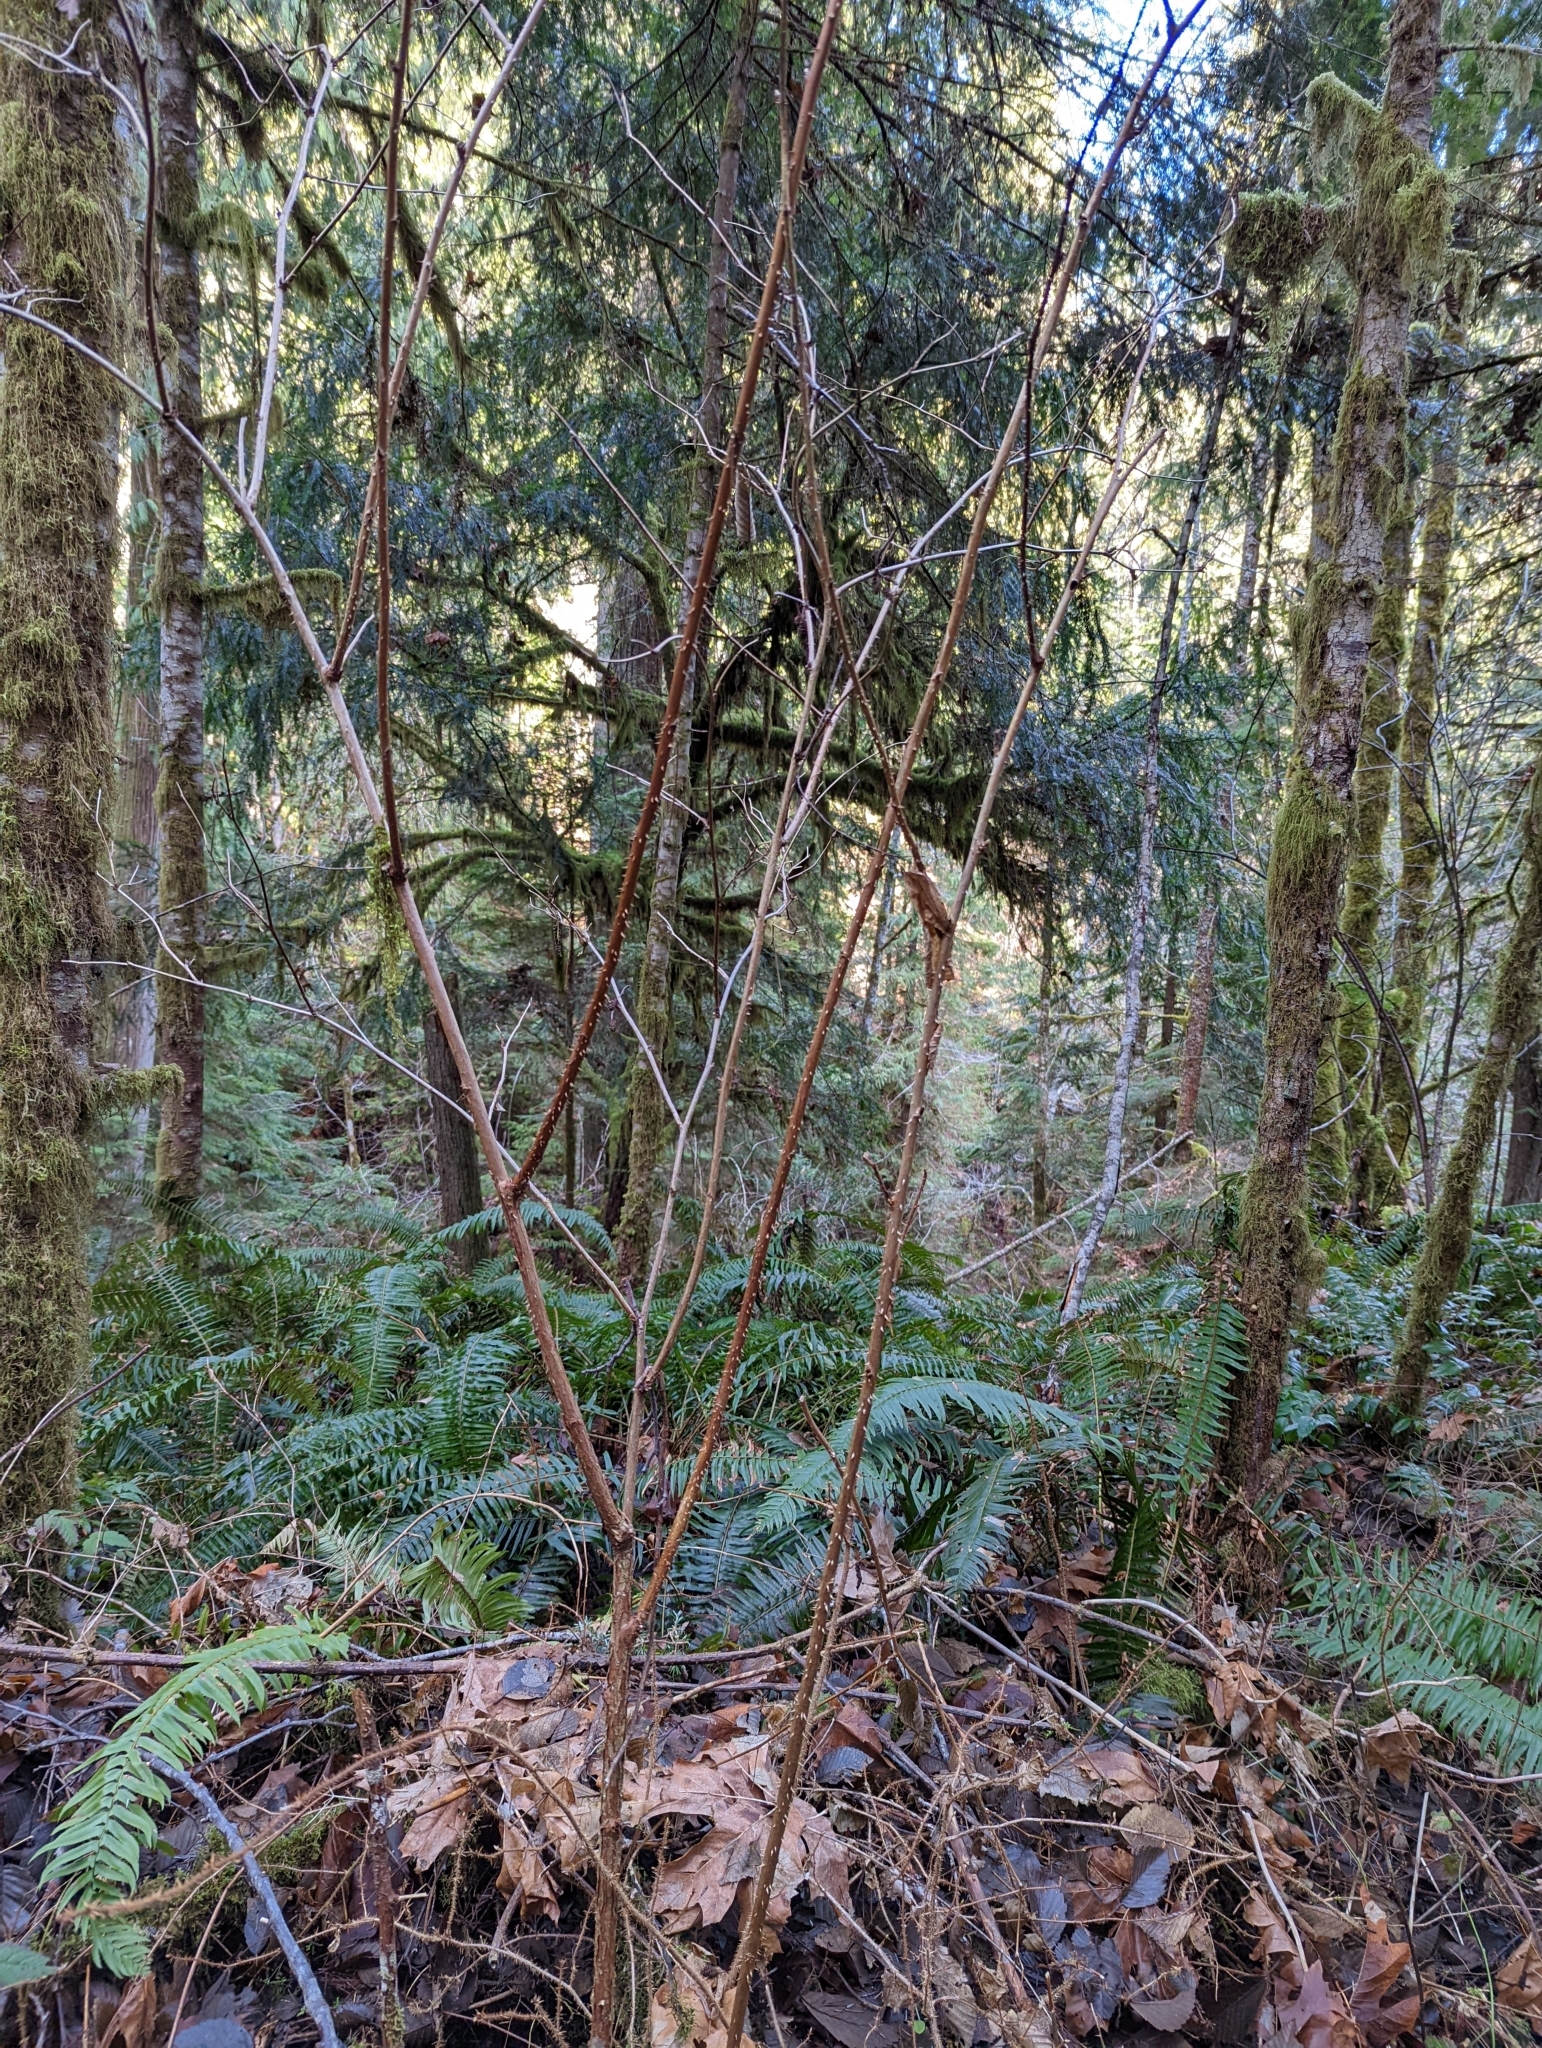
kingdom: Plantae
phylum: Tracheophyta
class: Magnoliopsida
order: Rosales
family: Rosaceae
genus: Rubus
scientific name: Rubus spectabilis
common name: Salmonberry
